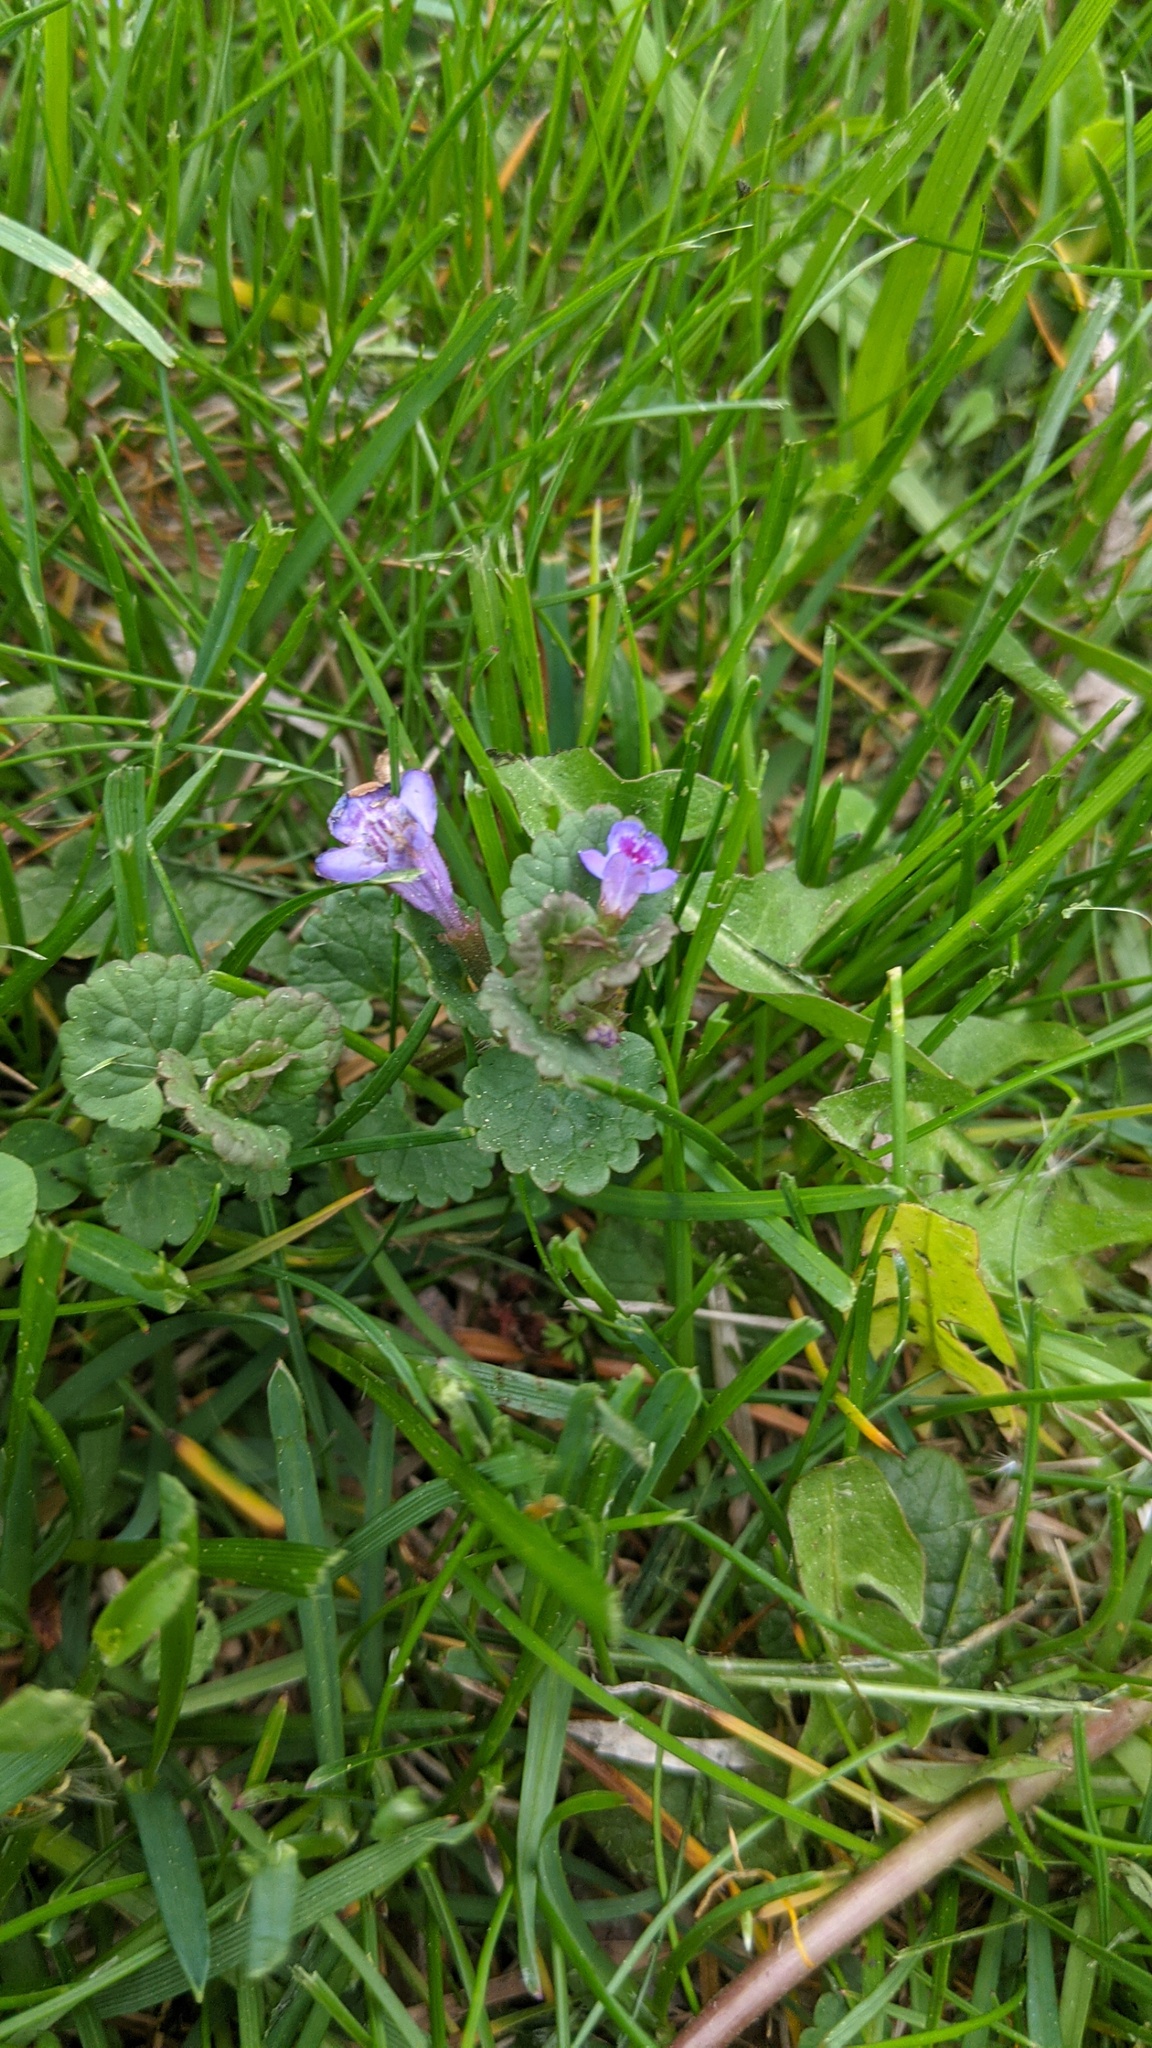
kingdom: Plantae
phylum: Tracheophyta
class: Magnoliopsida
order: Lamiales
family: Lamiaceae
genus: Glechoma
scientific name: Glechoma hederacea
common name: Ground ivy
